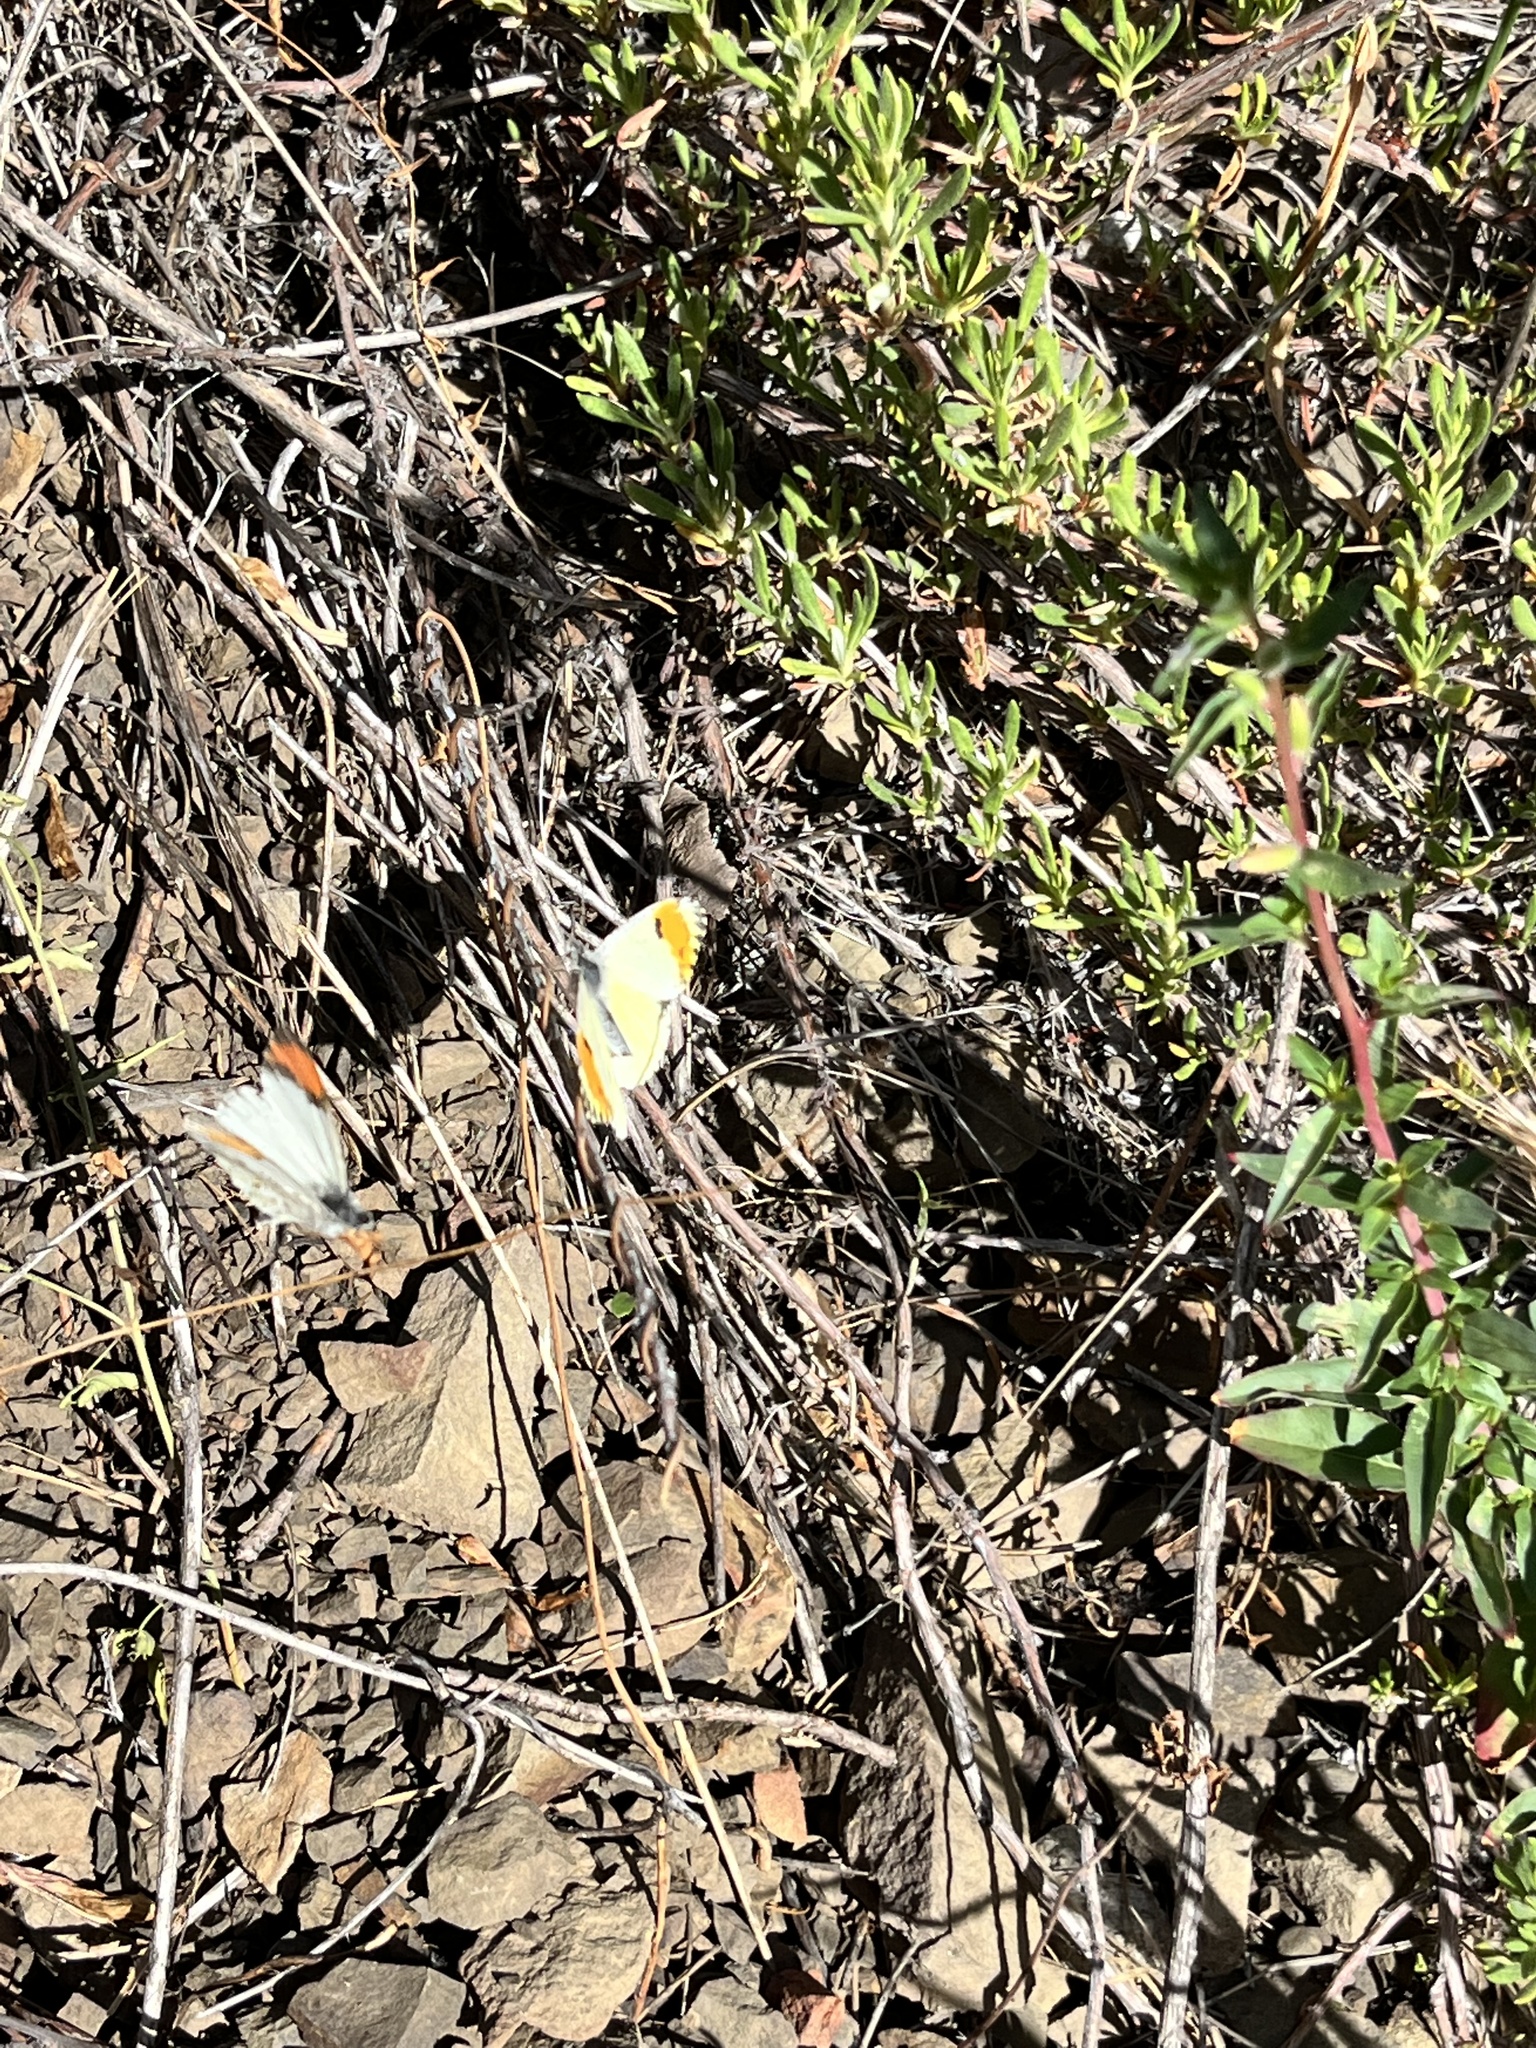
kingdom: Animalia
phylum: Arthropoda
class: Insecta
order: Lepidoptera
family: Pieridae
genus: Anthocharis
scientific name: Anthocharis sara
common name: Sara's orangetip
